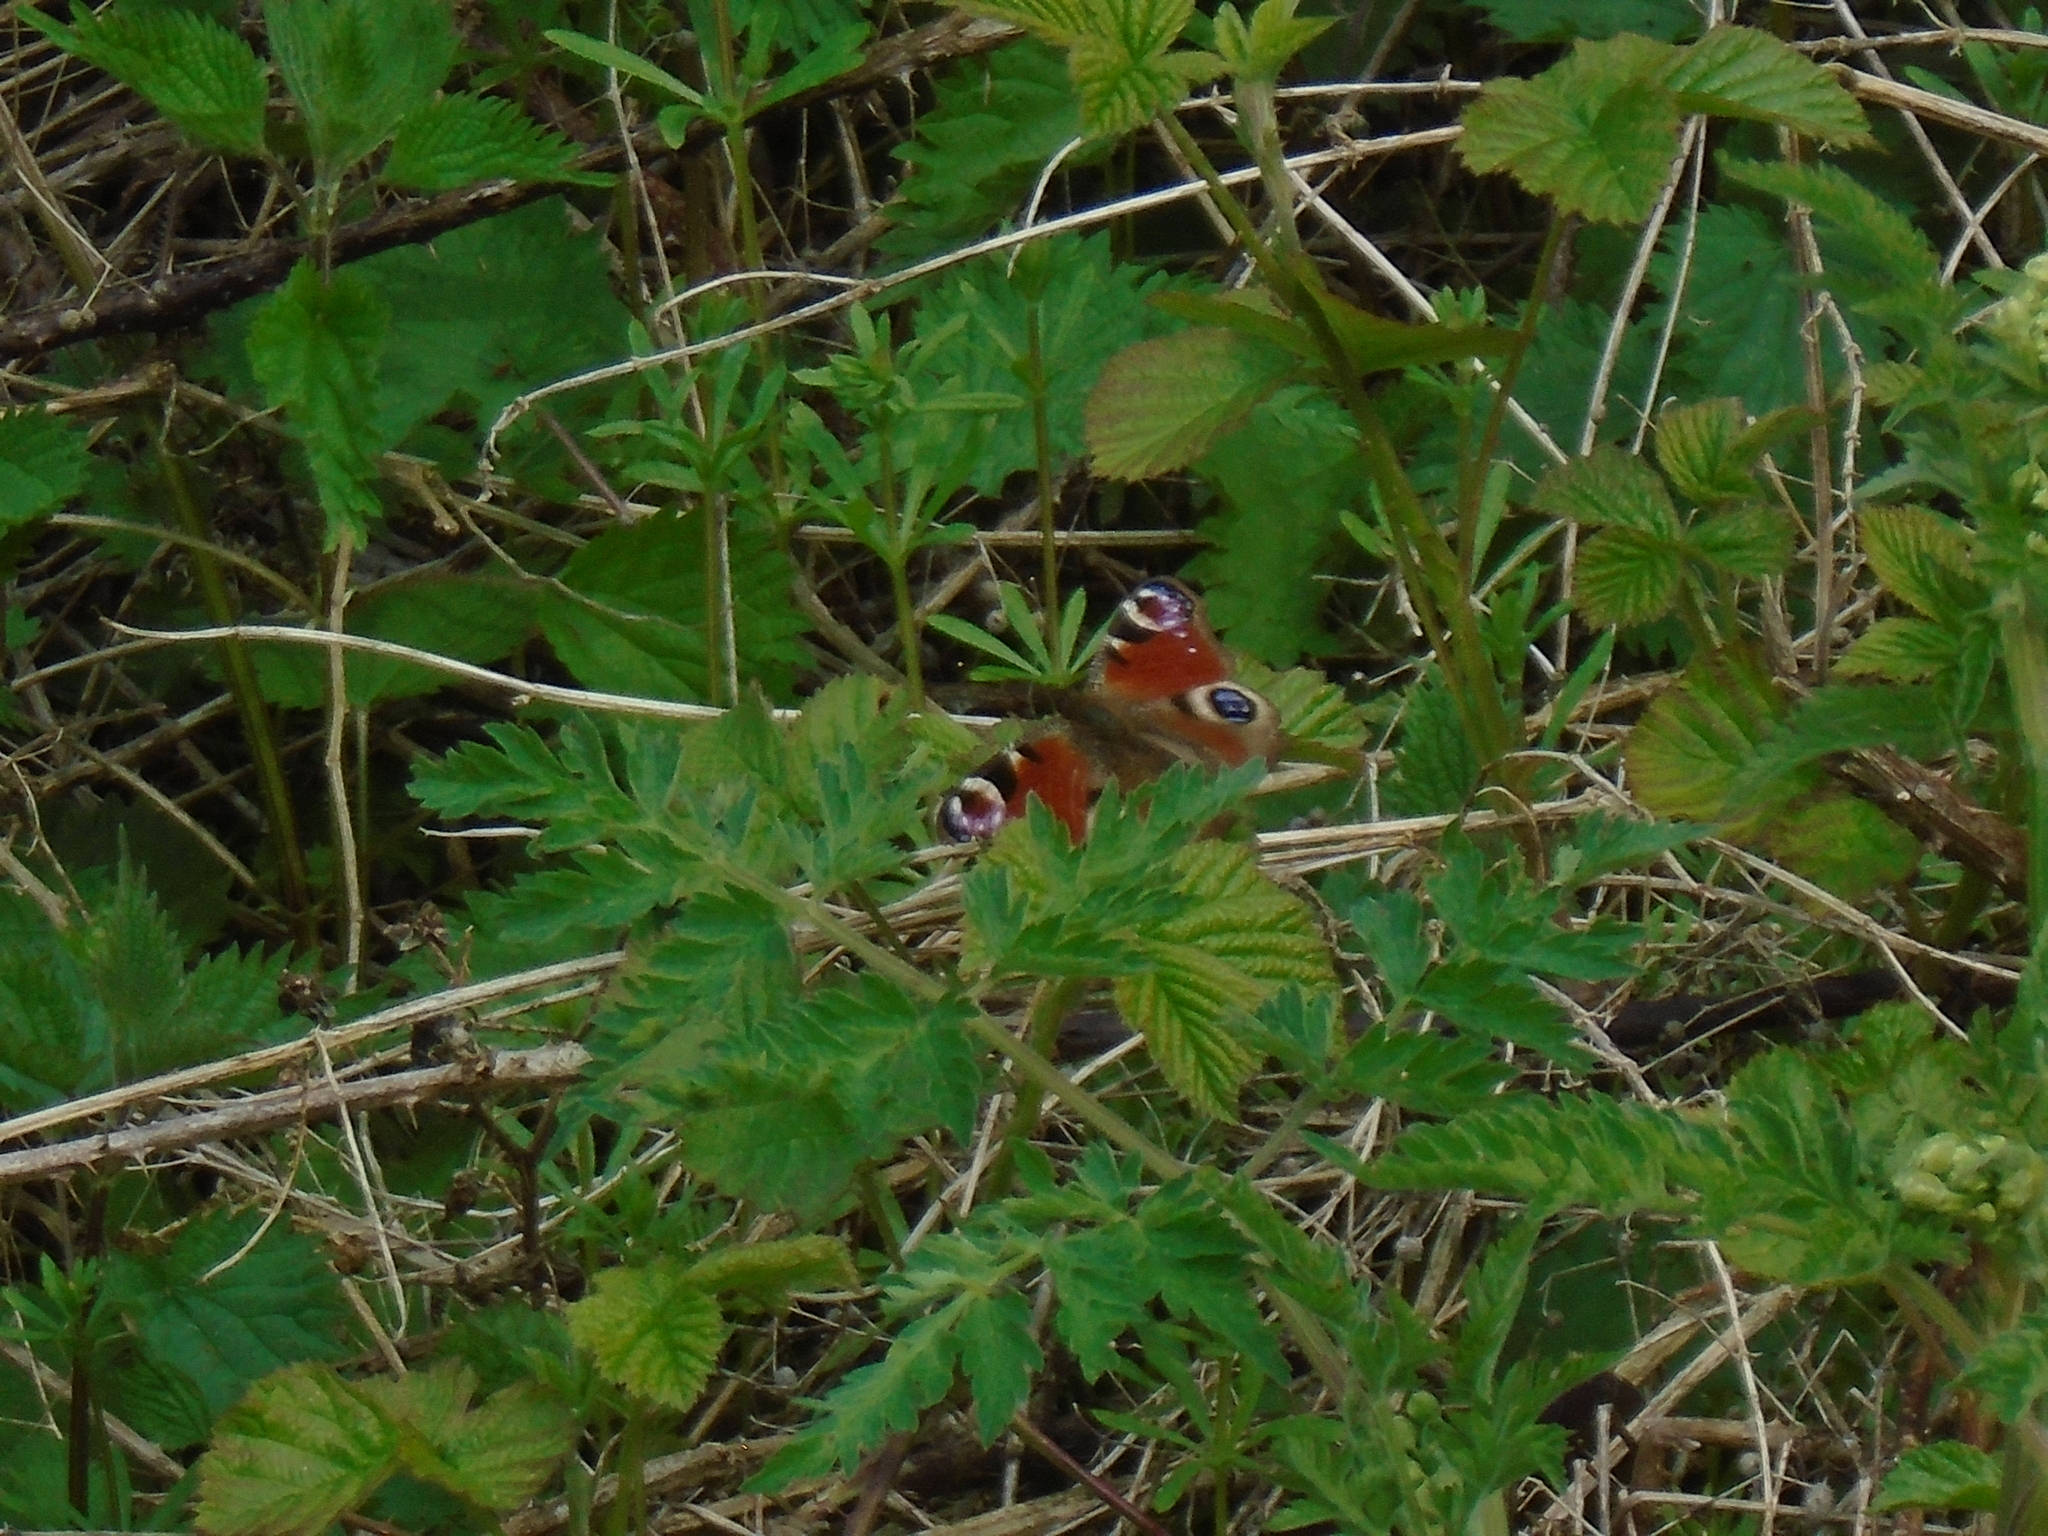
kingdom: Animalia
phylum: Arthropoda
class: Insecta
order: Lepidoptera
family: Nymphalidae
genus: Aglais
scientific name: Aglais io
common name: Peacock
